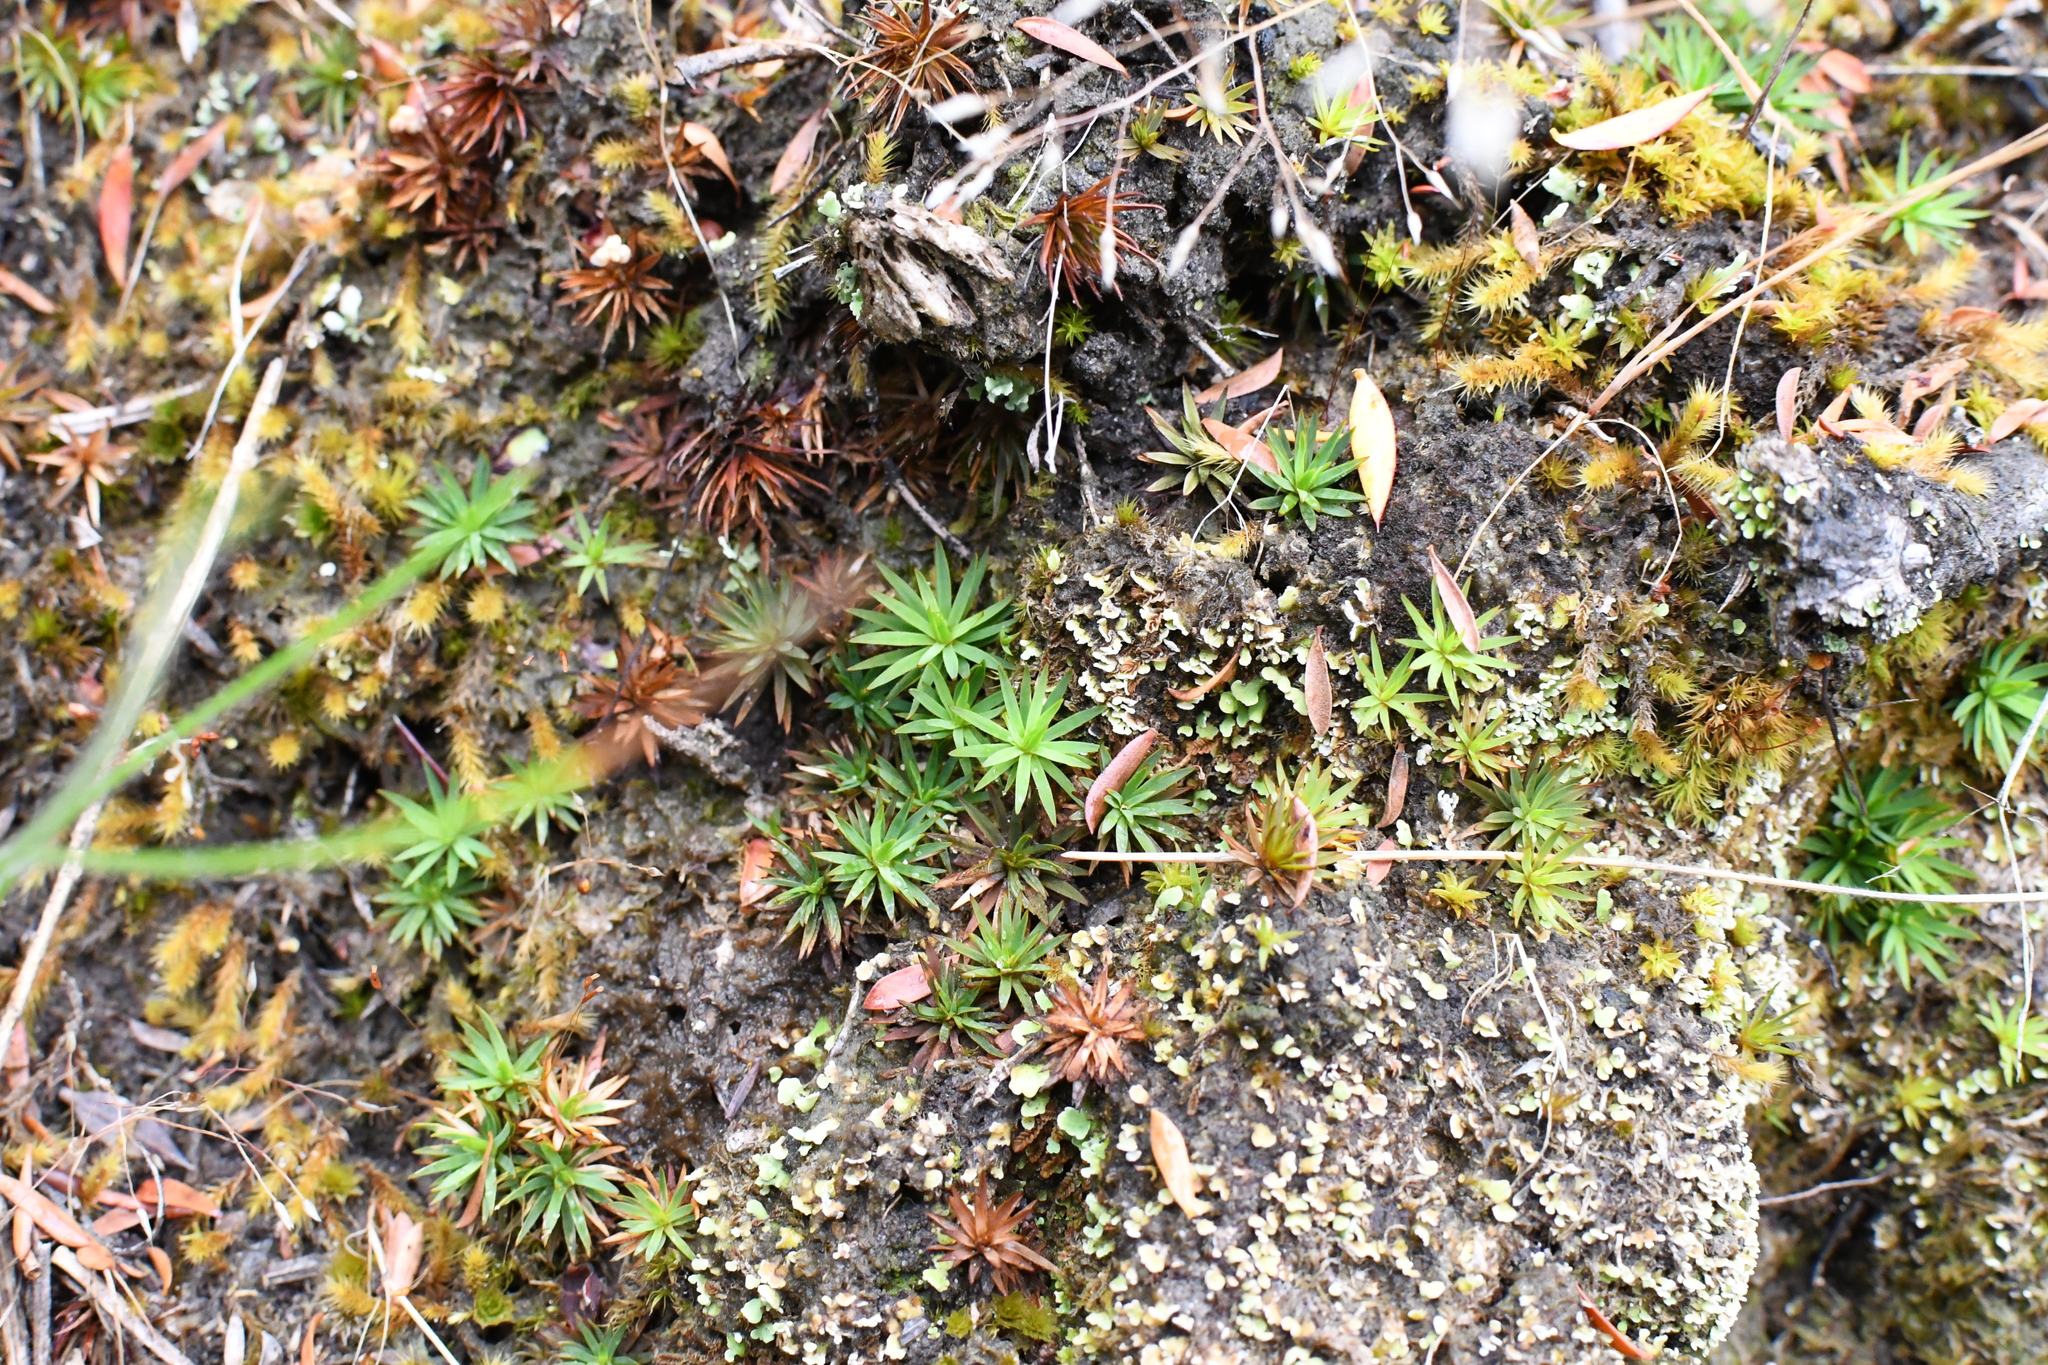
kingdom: Plantae
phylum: Bryophyta
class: Polytrichopsida
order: Polytrichales
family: Polytrichaceae
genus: Dawsonia
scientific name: Dawsonia longiseta
